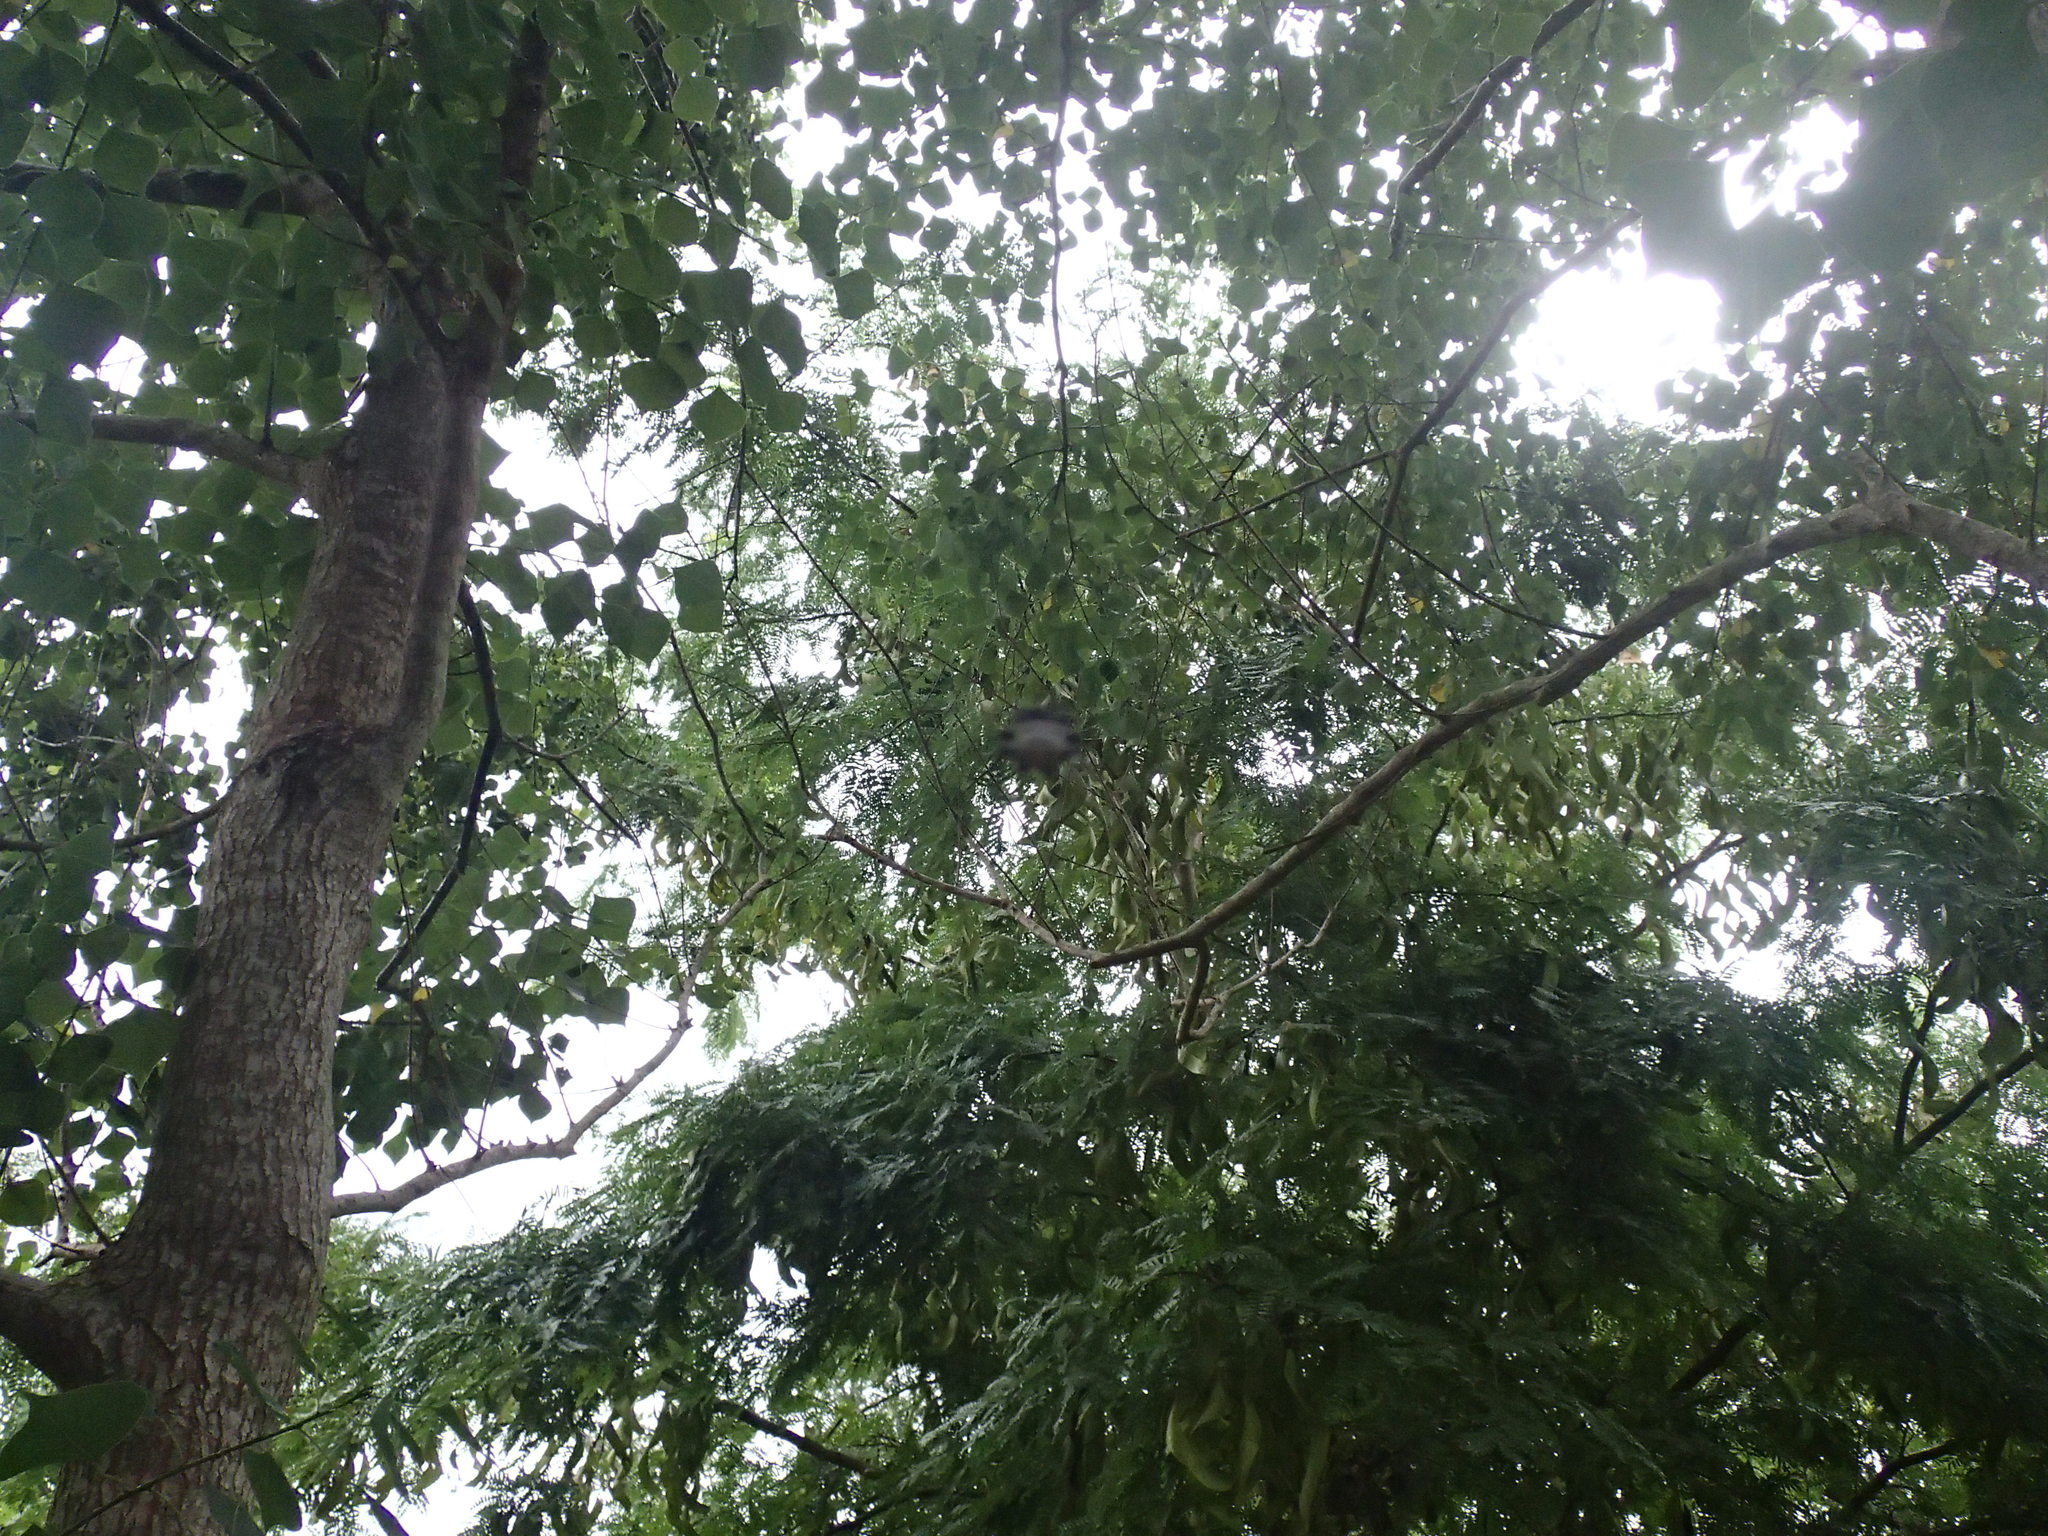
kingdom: Animalia
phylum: Arthropoda
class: Arachnida
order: Araneae
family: Araneidae
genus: Gasteracantha
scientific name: Gasteracantha cancriformis
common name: Orb weavers
